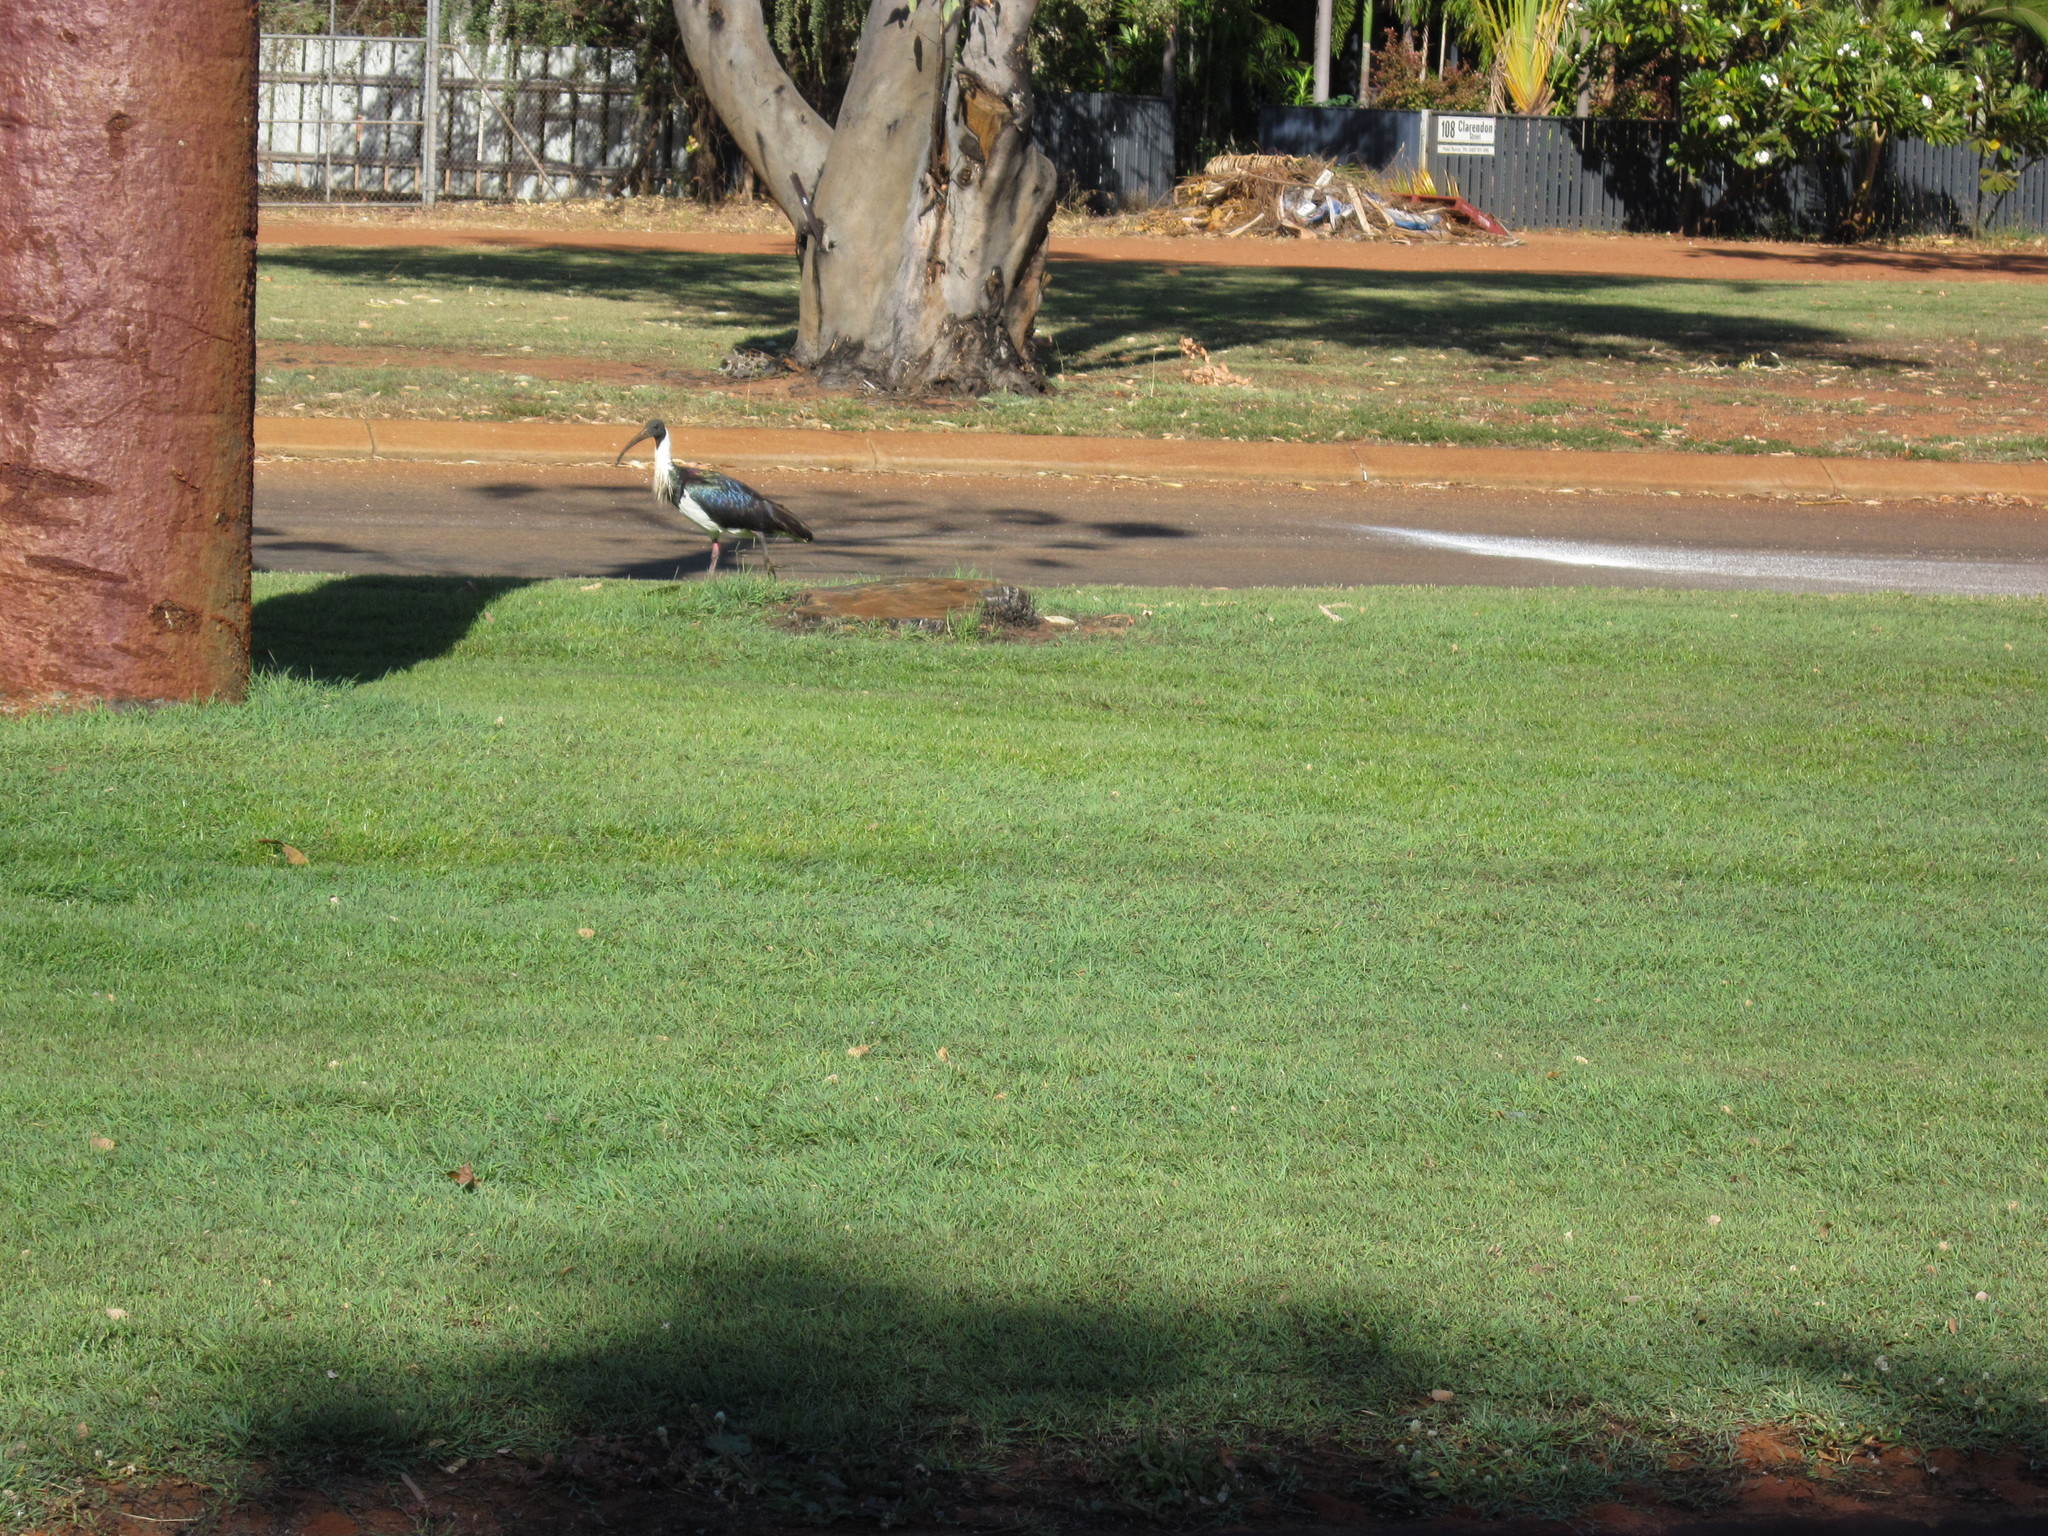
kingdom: Animalia
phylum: Chordata
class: Aves
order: Pelecaniformes
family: Threskiornithidae
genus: Threskiornis
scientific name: Threskiornis spinicollis
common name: Straw-necked ibis
